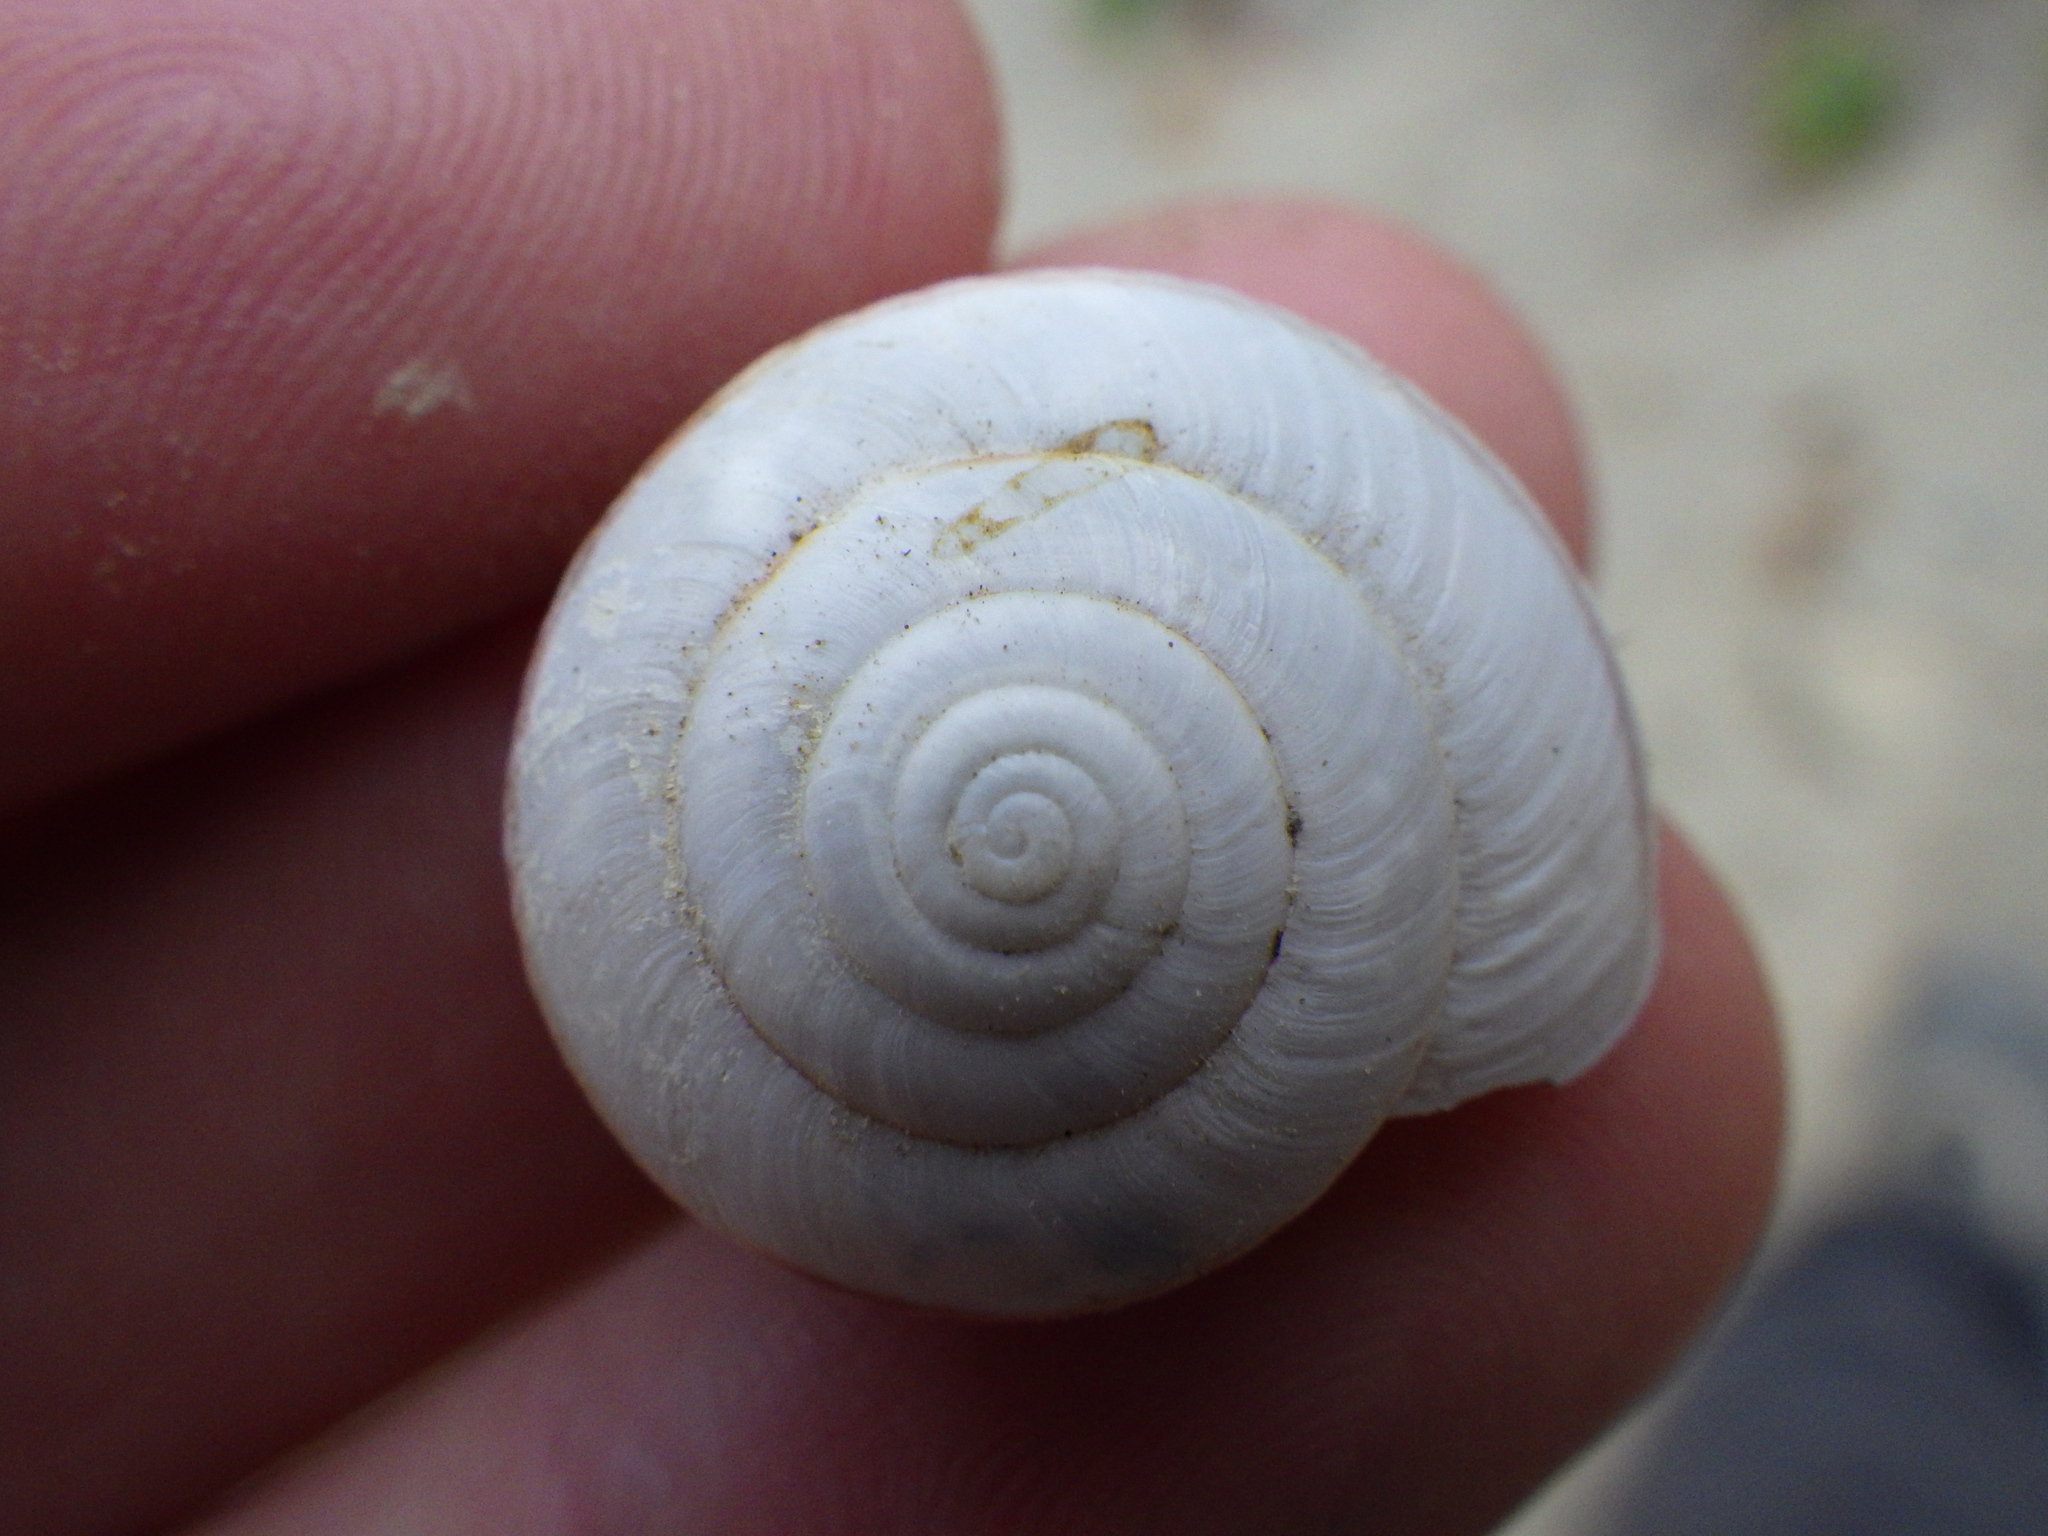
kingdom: Animalia
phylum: Mollusca
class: Gastropoda
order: Stylommatophora
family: Xanthonychidae
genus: Helminthoglypta
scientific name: Helminthoglypta traskii
